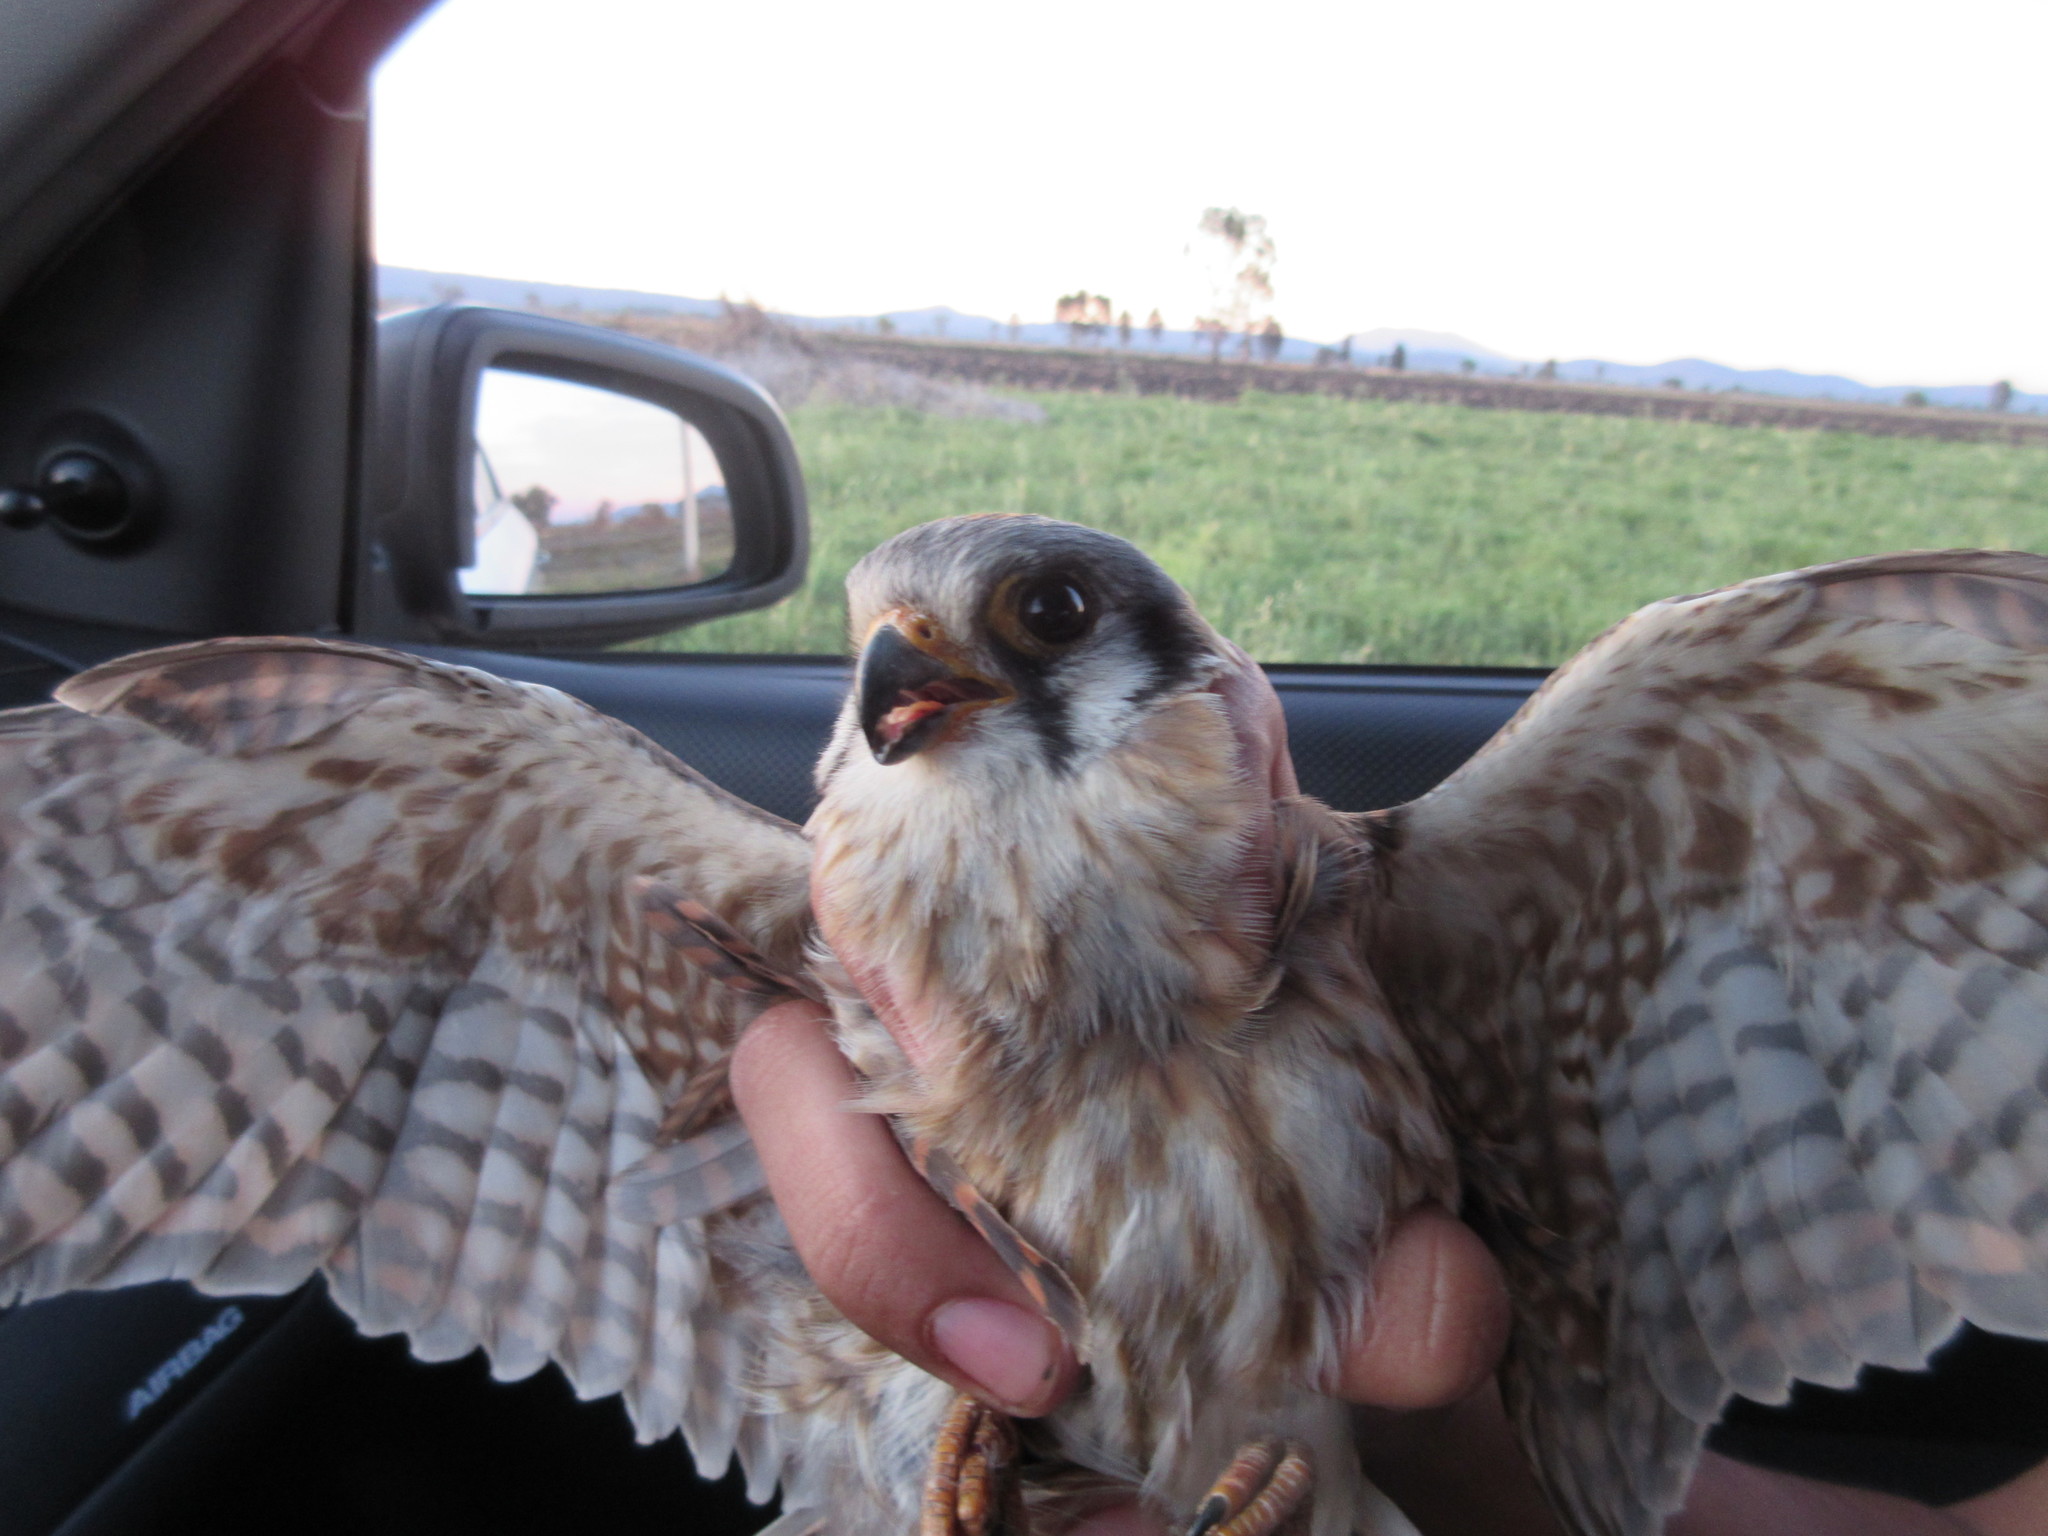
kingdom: Animalia
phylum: Chordata
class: Aves
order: Falconiformes
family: Falconidae
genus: Falco
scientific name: Falco sparverius
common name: American kestrel
